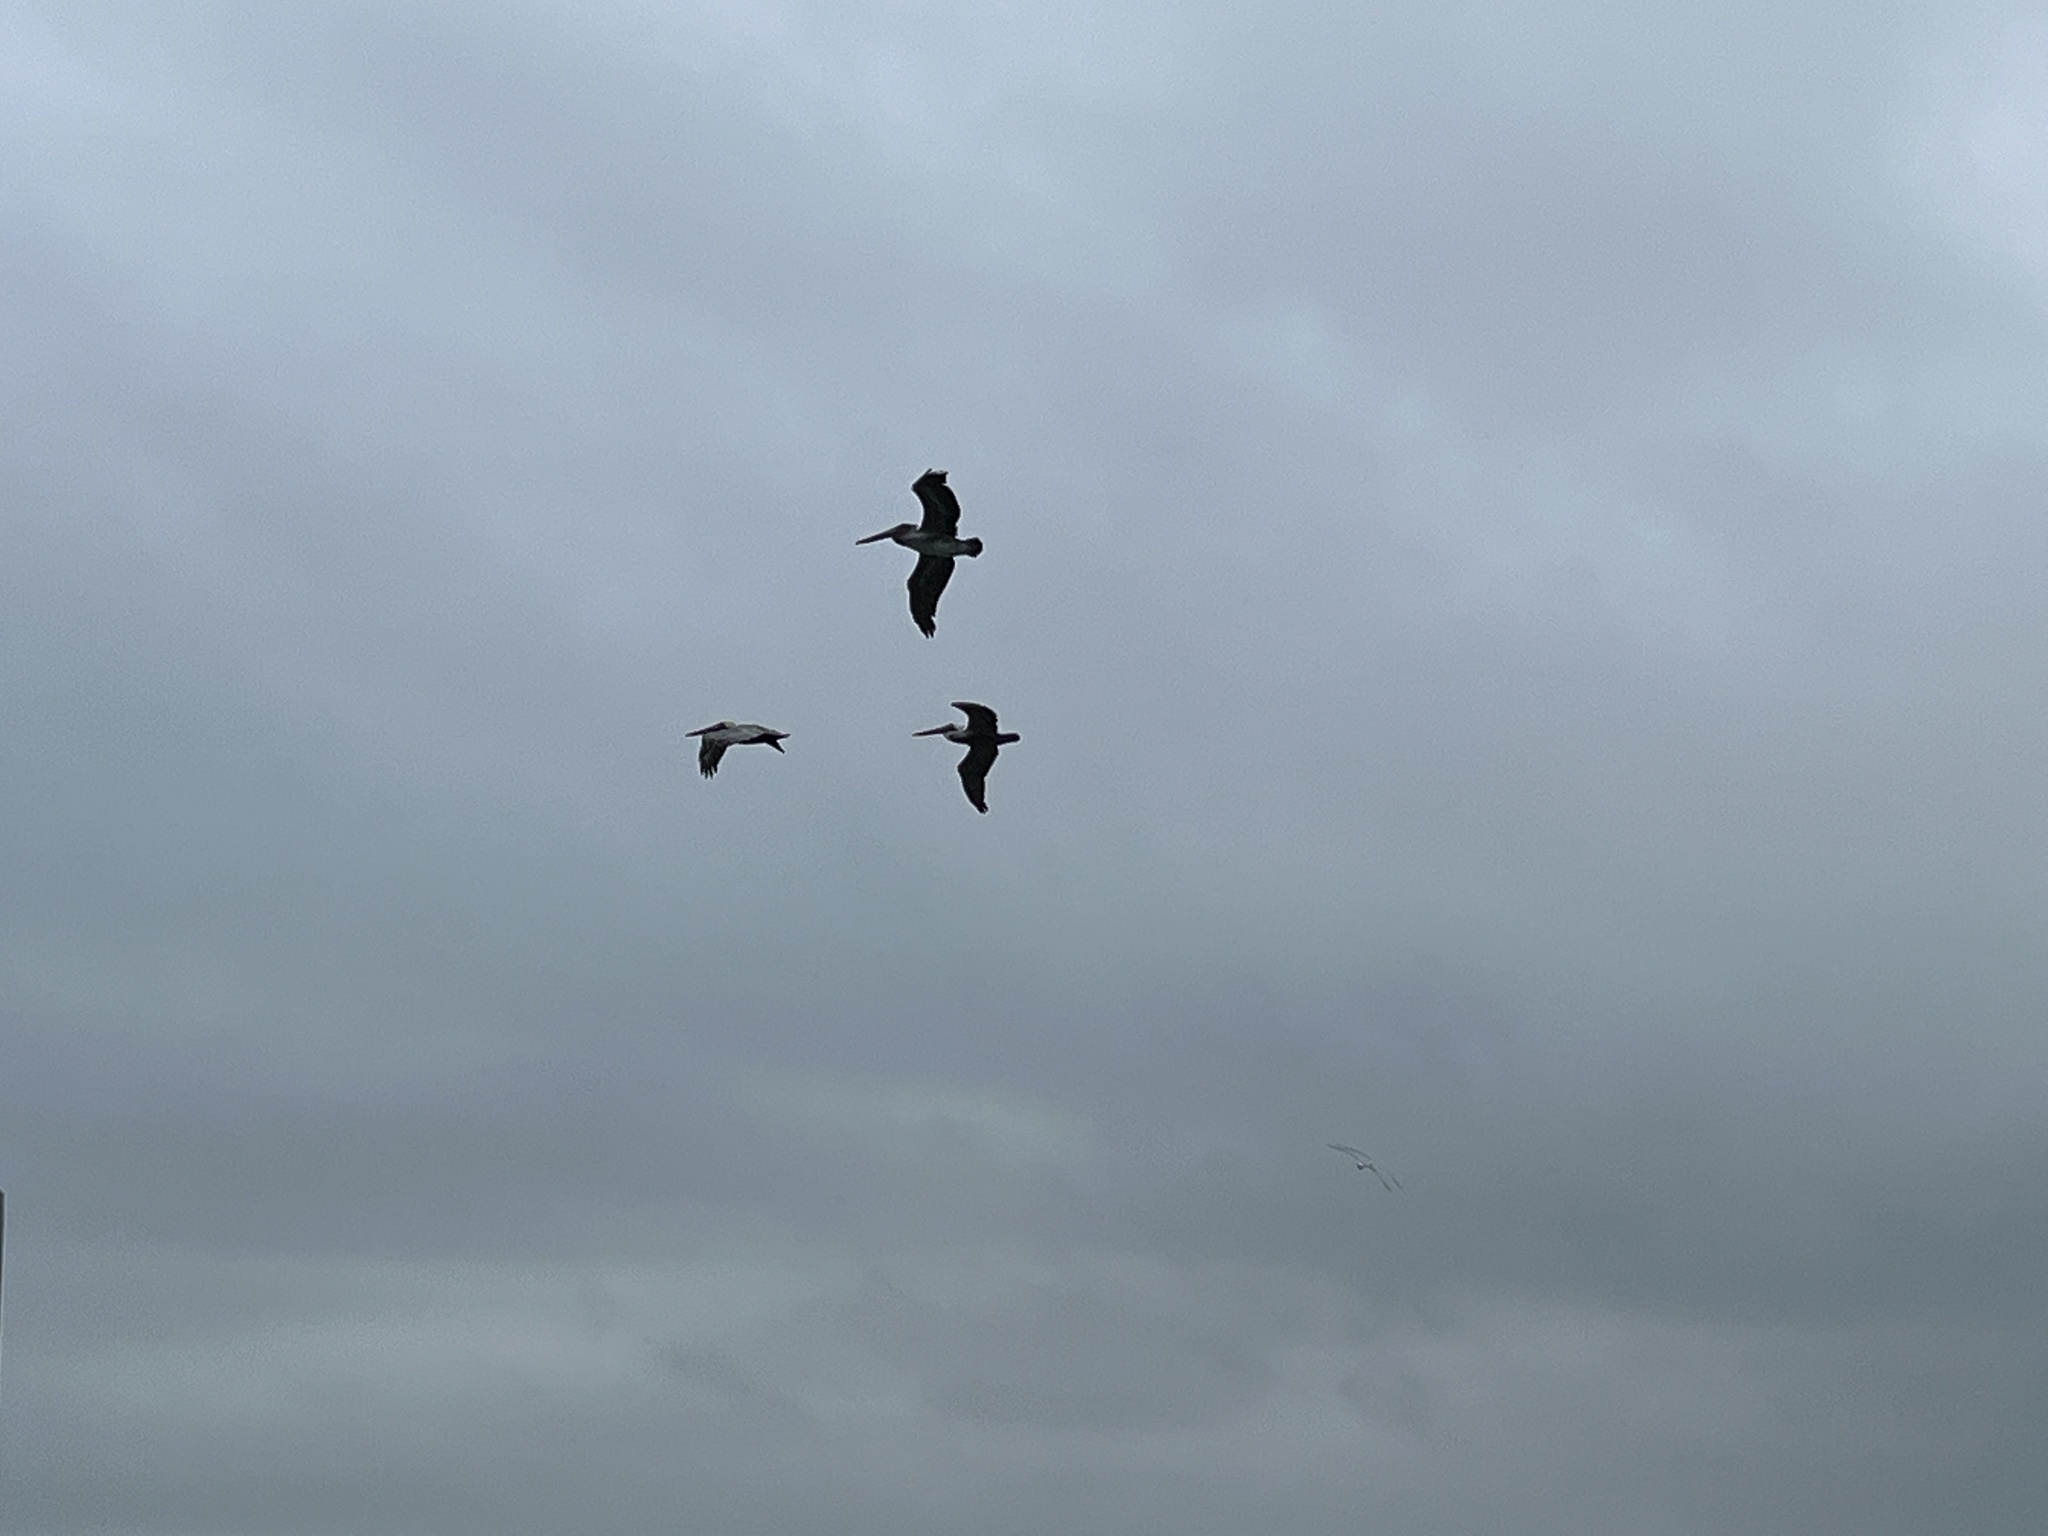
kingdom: Animalia
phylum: Chordata
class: Aves
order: Pelecaniformes
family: Pelecanidae
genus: Pelecanus
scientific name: Pelecanus occidentalis
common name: Brown pelican
